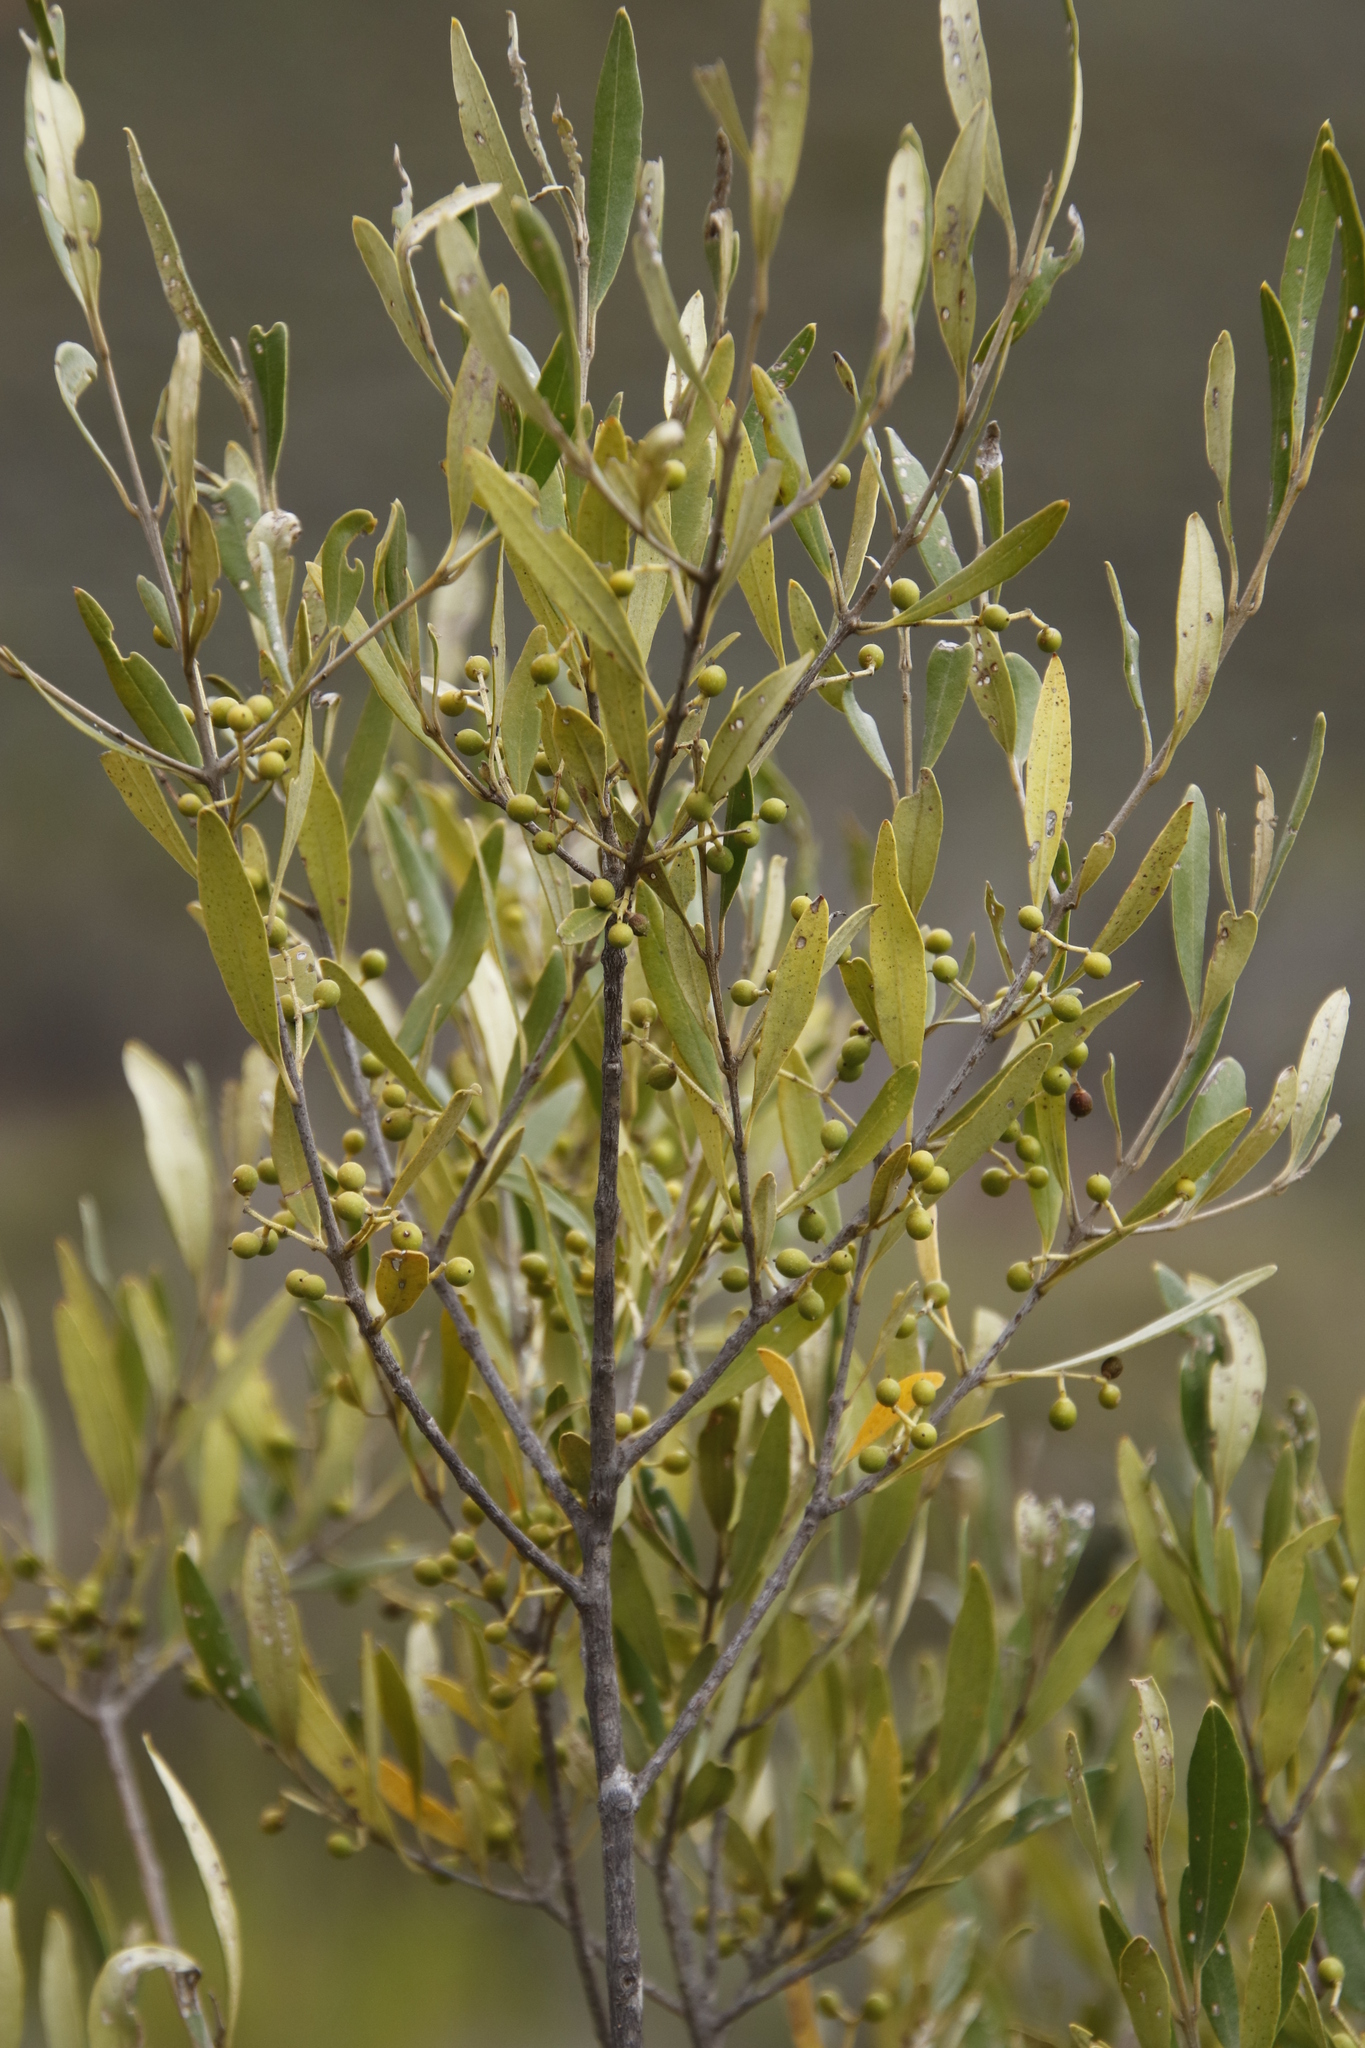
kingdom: Plantae
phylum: Tracheophyta
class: Magnoliopsida
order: Lamiales
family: Oleaceae
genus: Olea
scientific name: Olea europaea
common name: Olive
